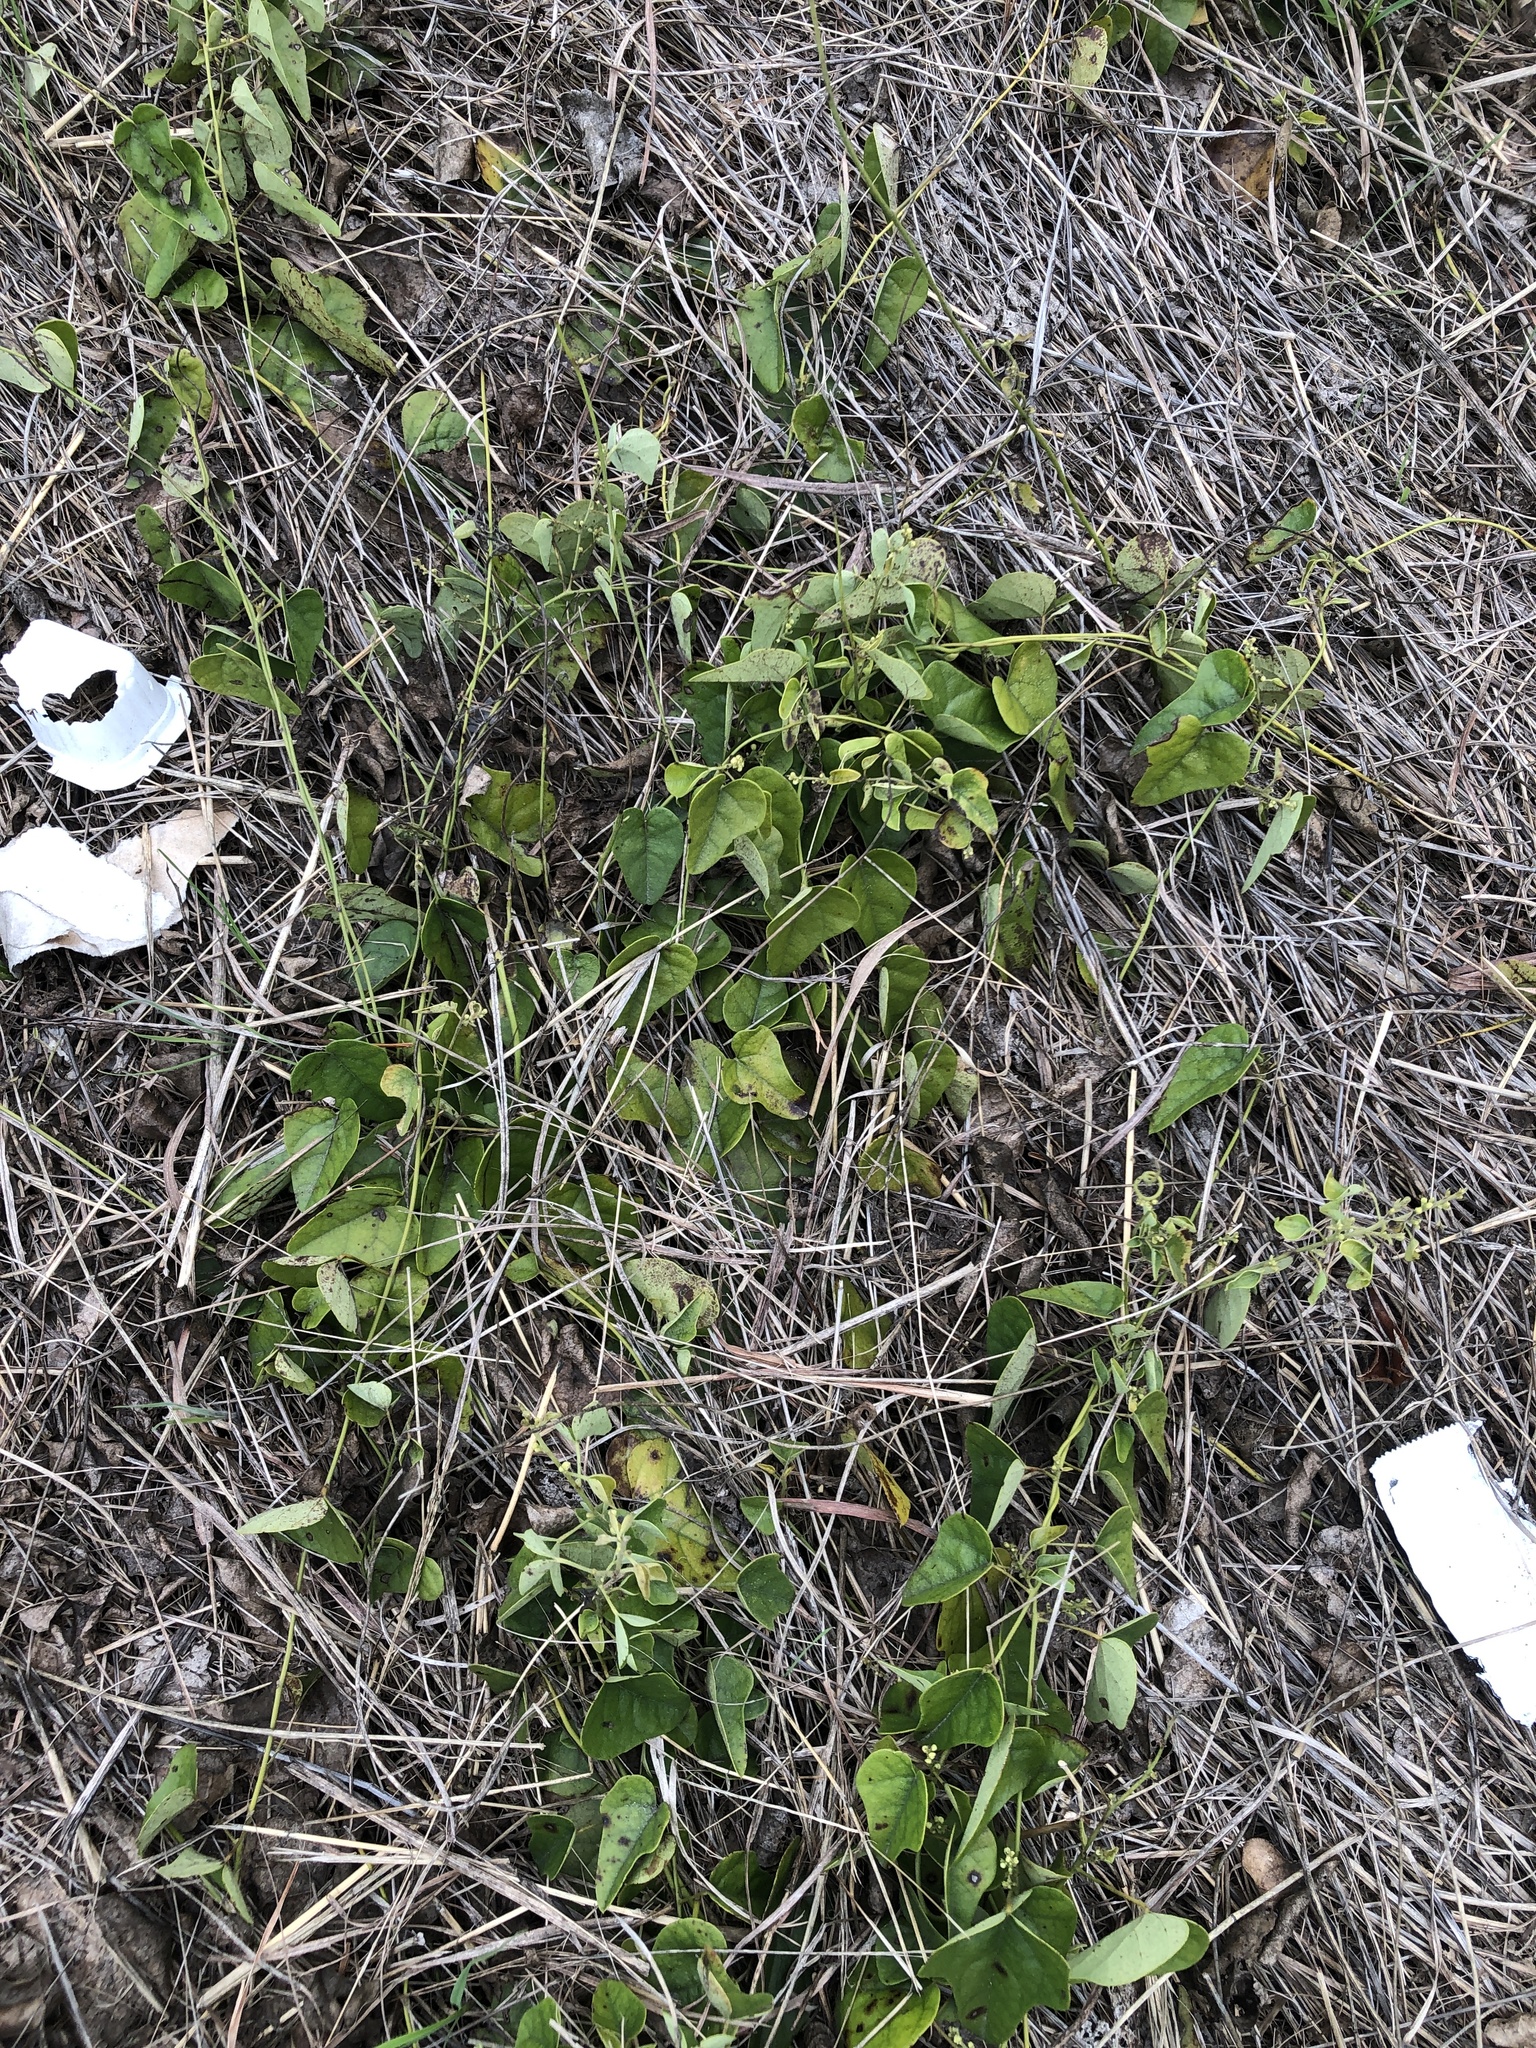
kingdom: Plantae
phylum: Tracheophyta
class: Magnoliopsida
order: Ranunculales
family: Menispermaceae
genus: Cocculus
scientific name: Cocculus carolinus
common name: Carolina moonseed
